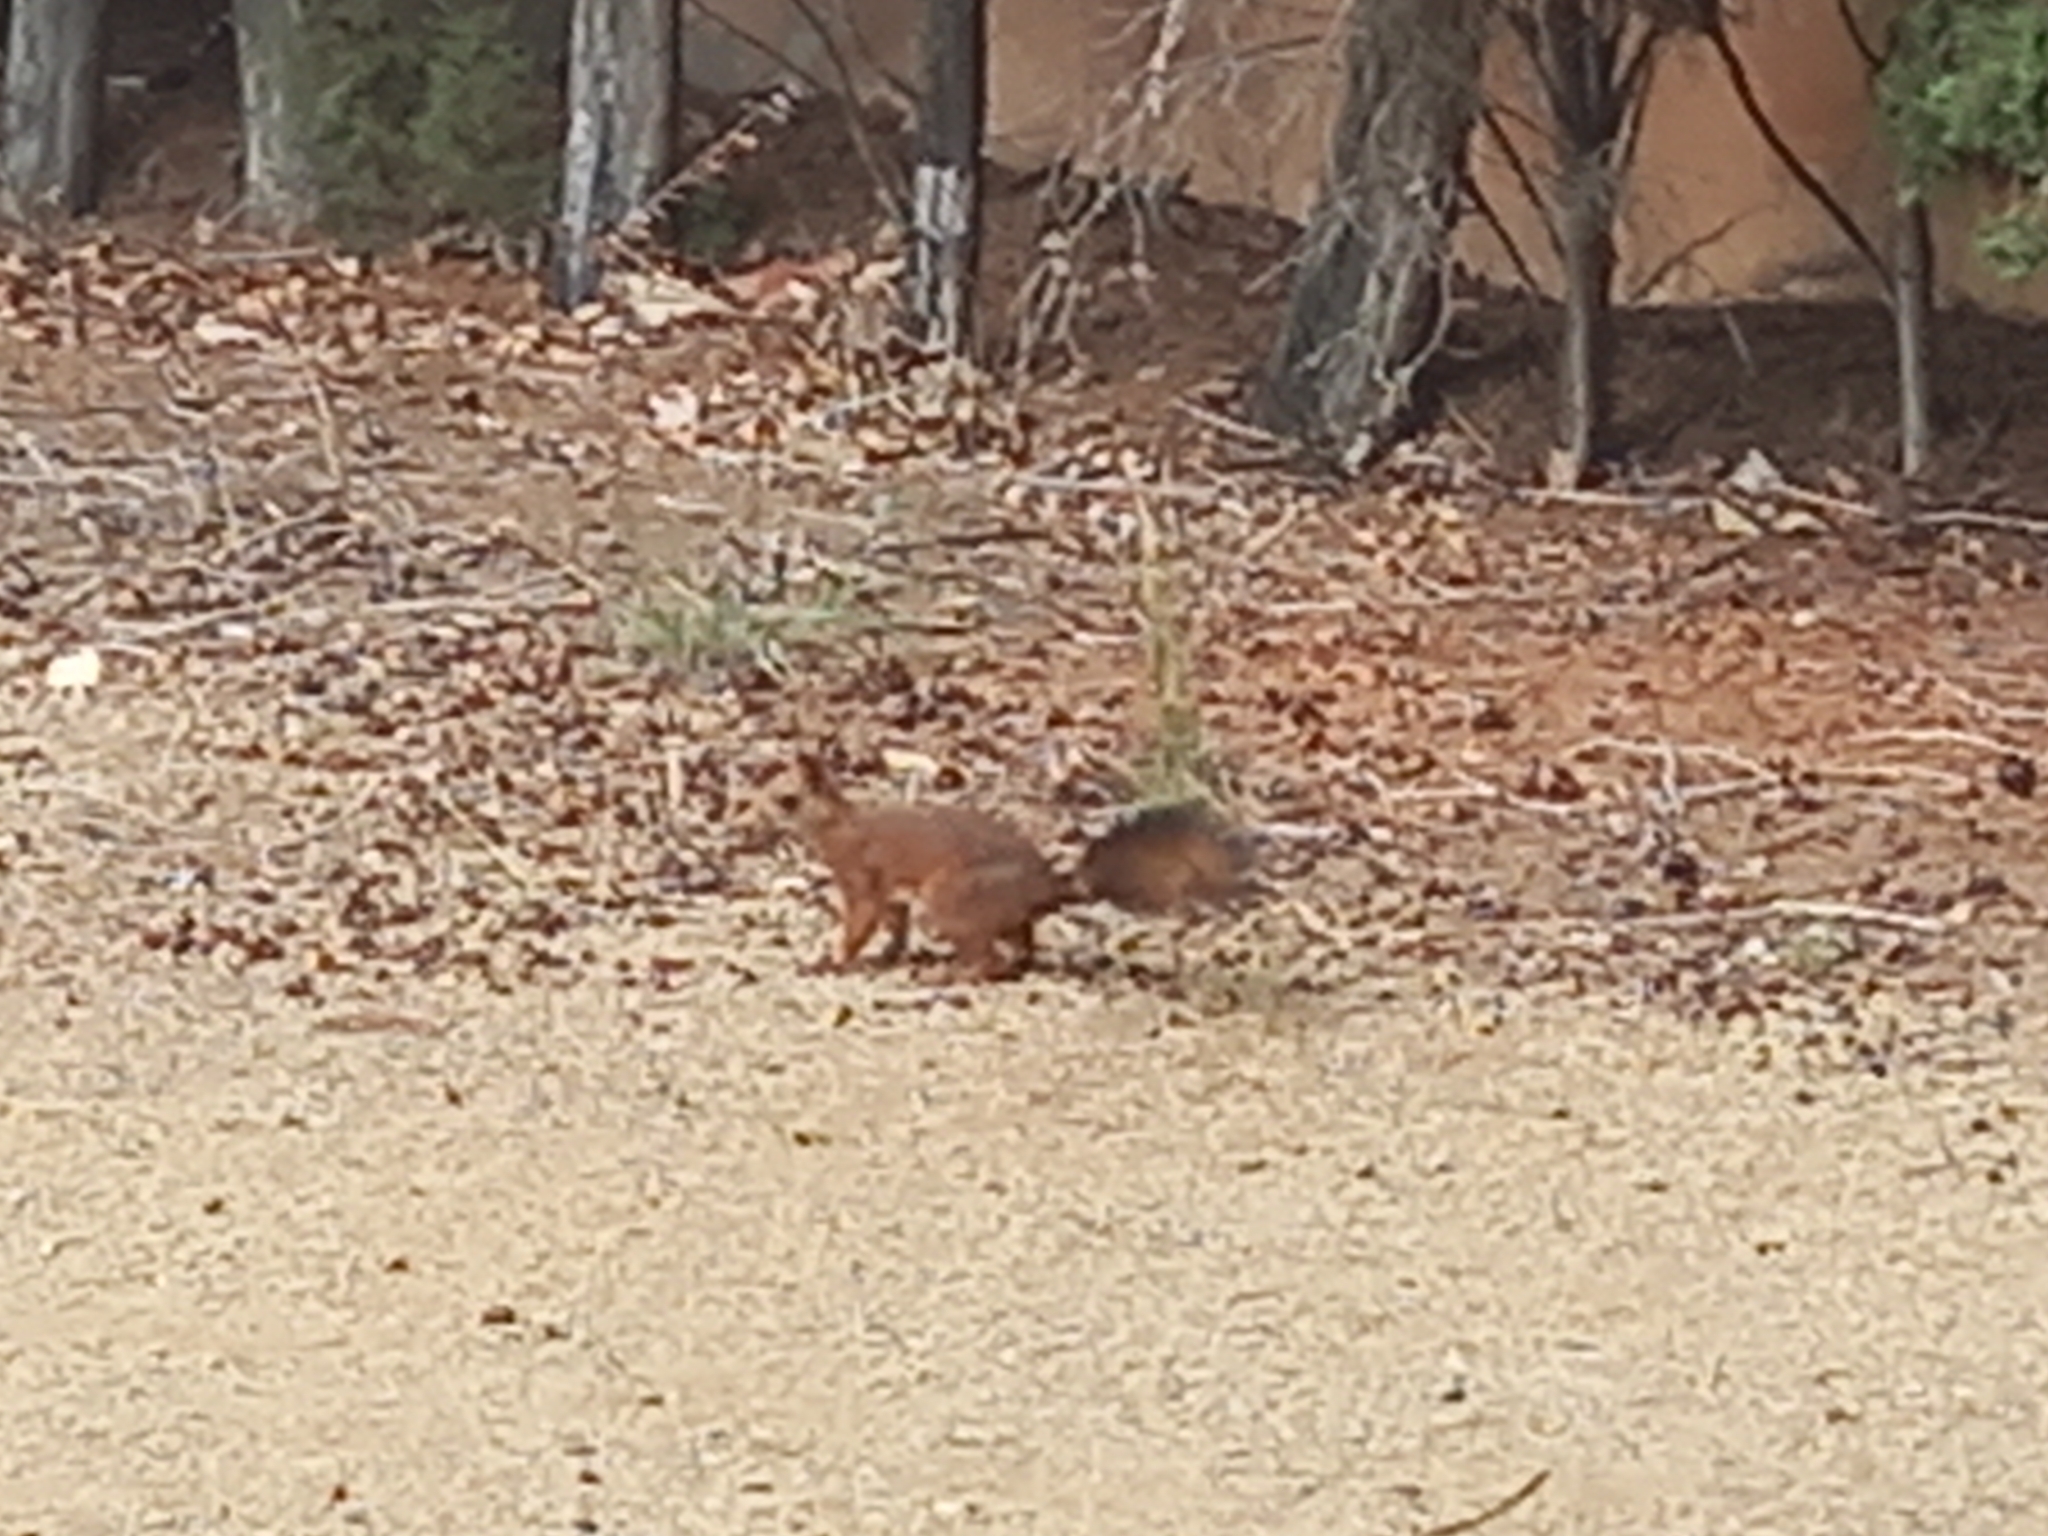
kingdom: Animalia
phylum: Chordata
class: Mammalia
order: Rodentia
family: Sciuridae
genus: Sciurus
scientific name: Sciurus vulgaris
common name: Eurasian red squirrel
